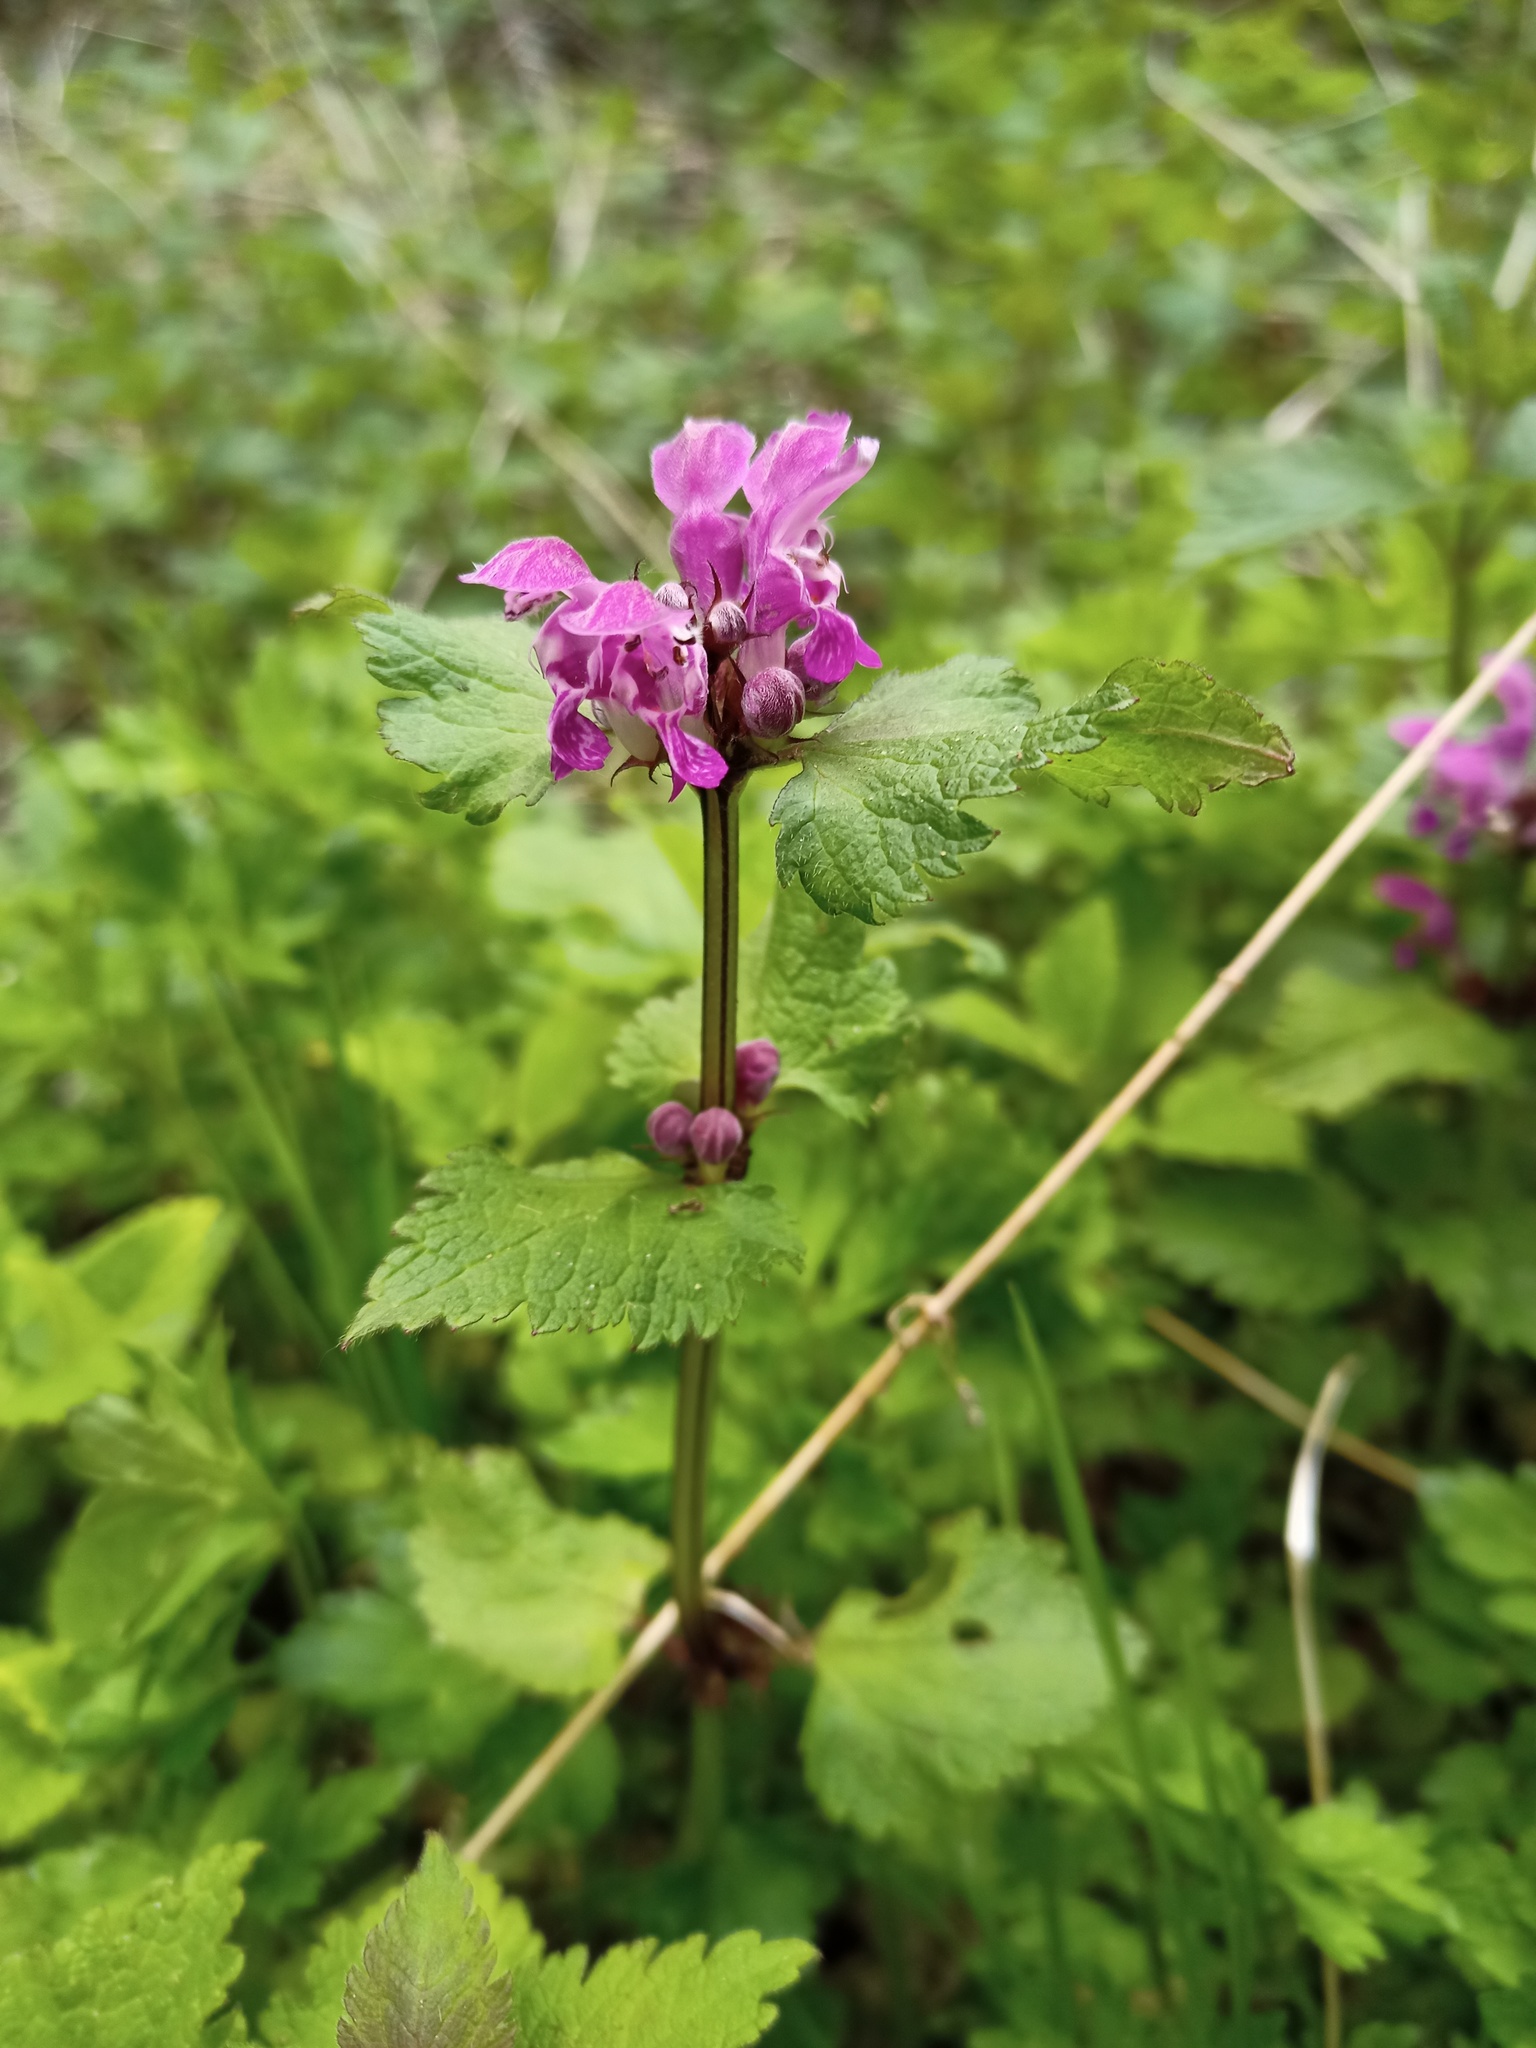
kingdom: Plantae
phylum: Tracheophyta
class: Magnoliopsida
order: Lamiales
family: Lamiaceae
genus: Lamium
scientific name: Lamium maculatum
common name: Spotted dead-nettle
